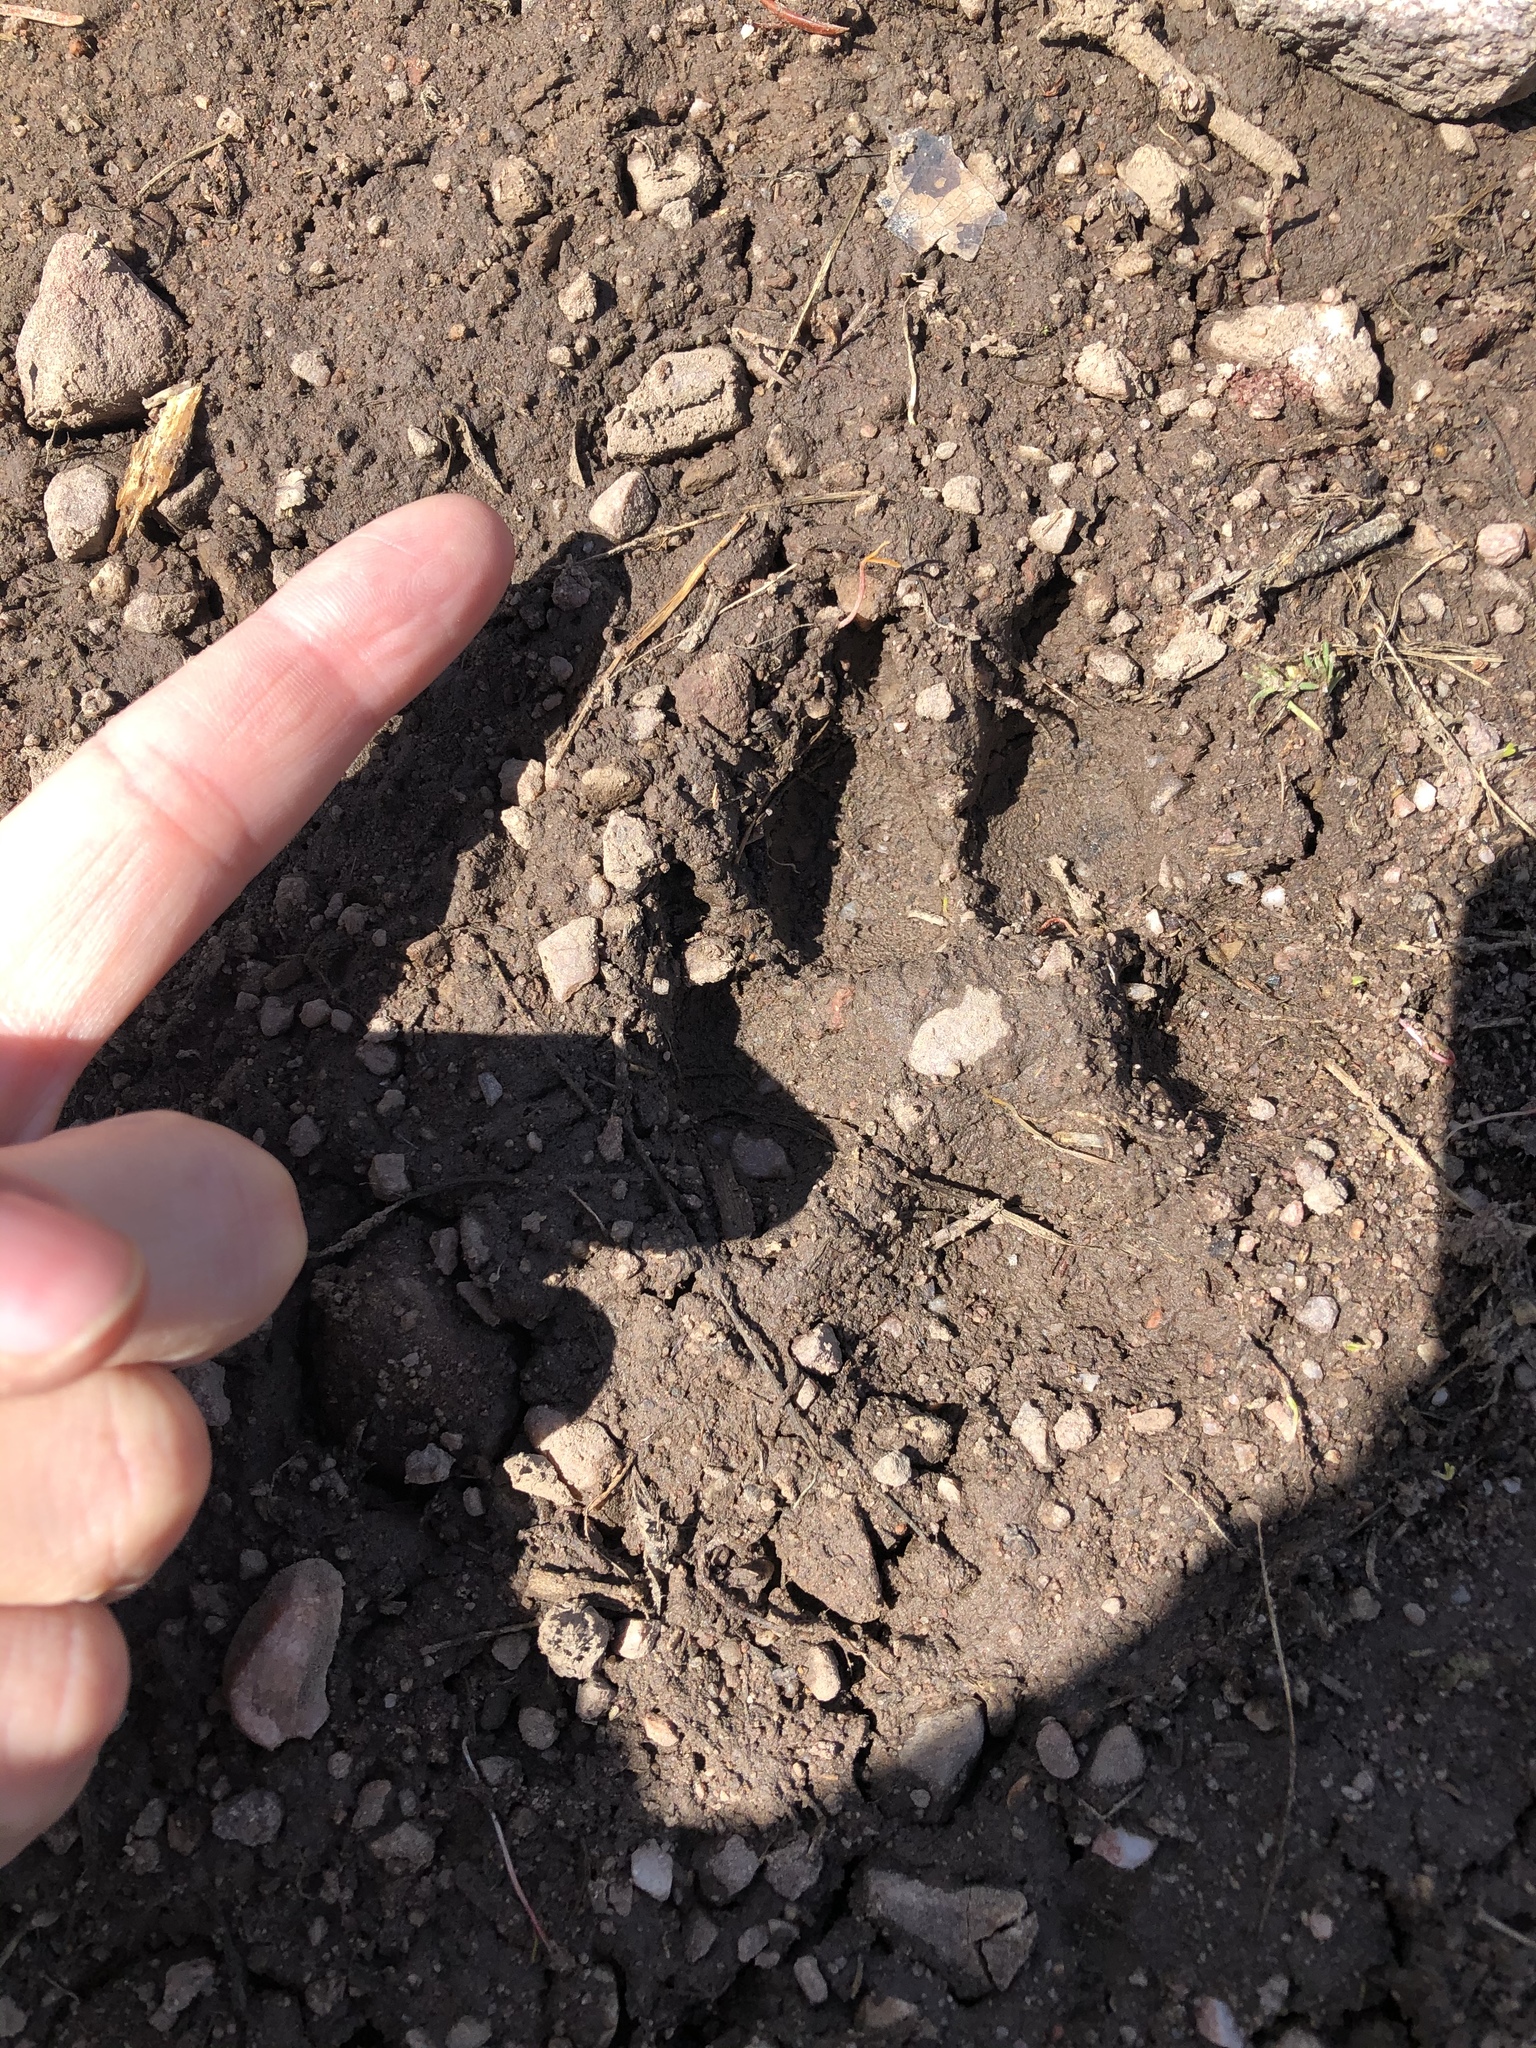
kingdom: Animalia
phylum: Chordata
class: Mammalia
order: Carnivora
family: Canidae
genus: Canis
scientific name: Canis latrans
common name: Coyote
